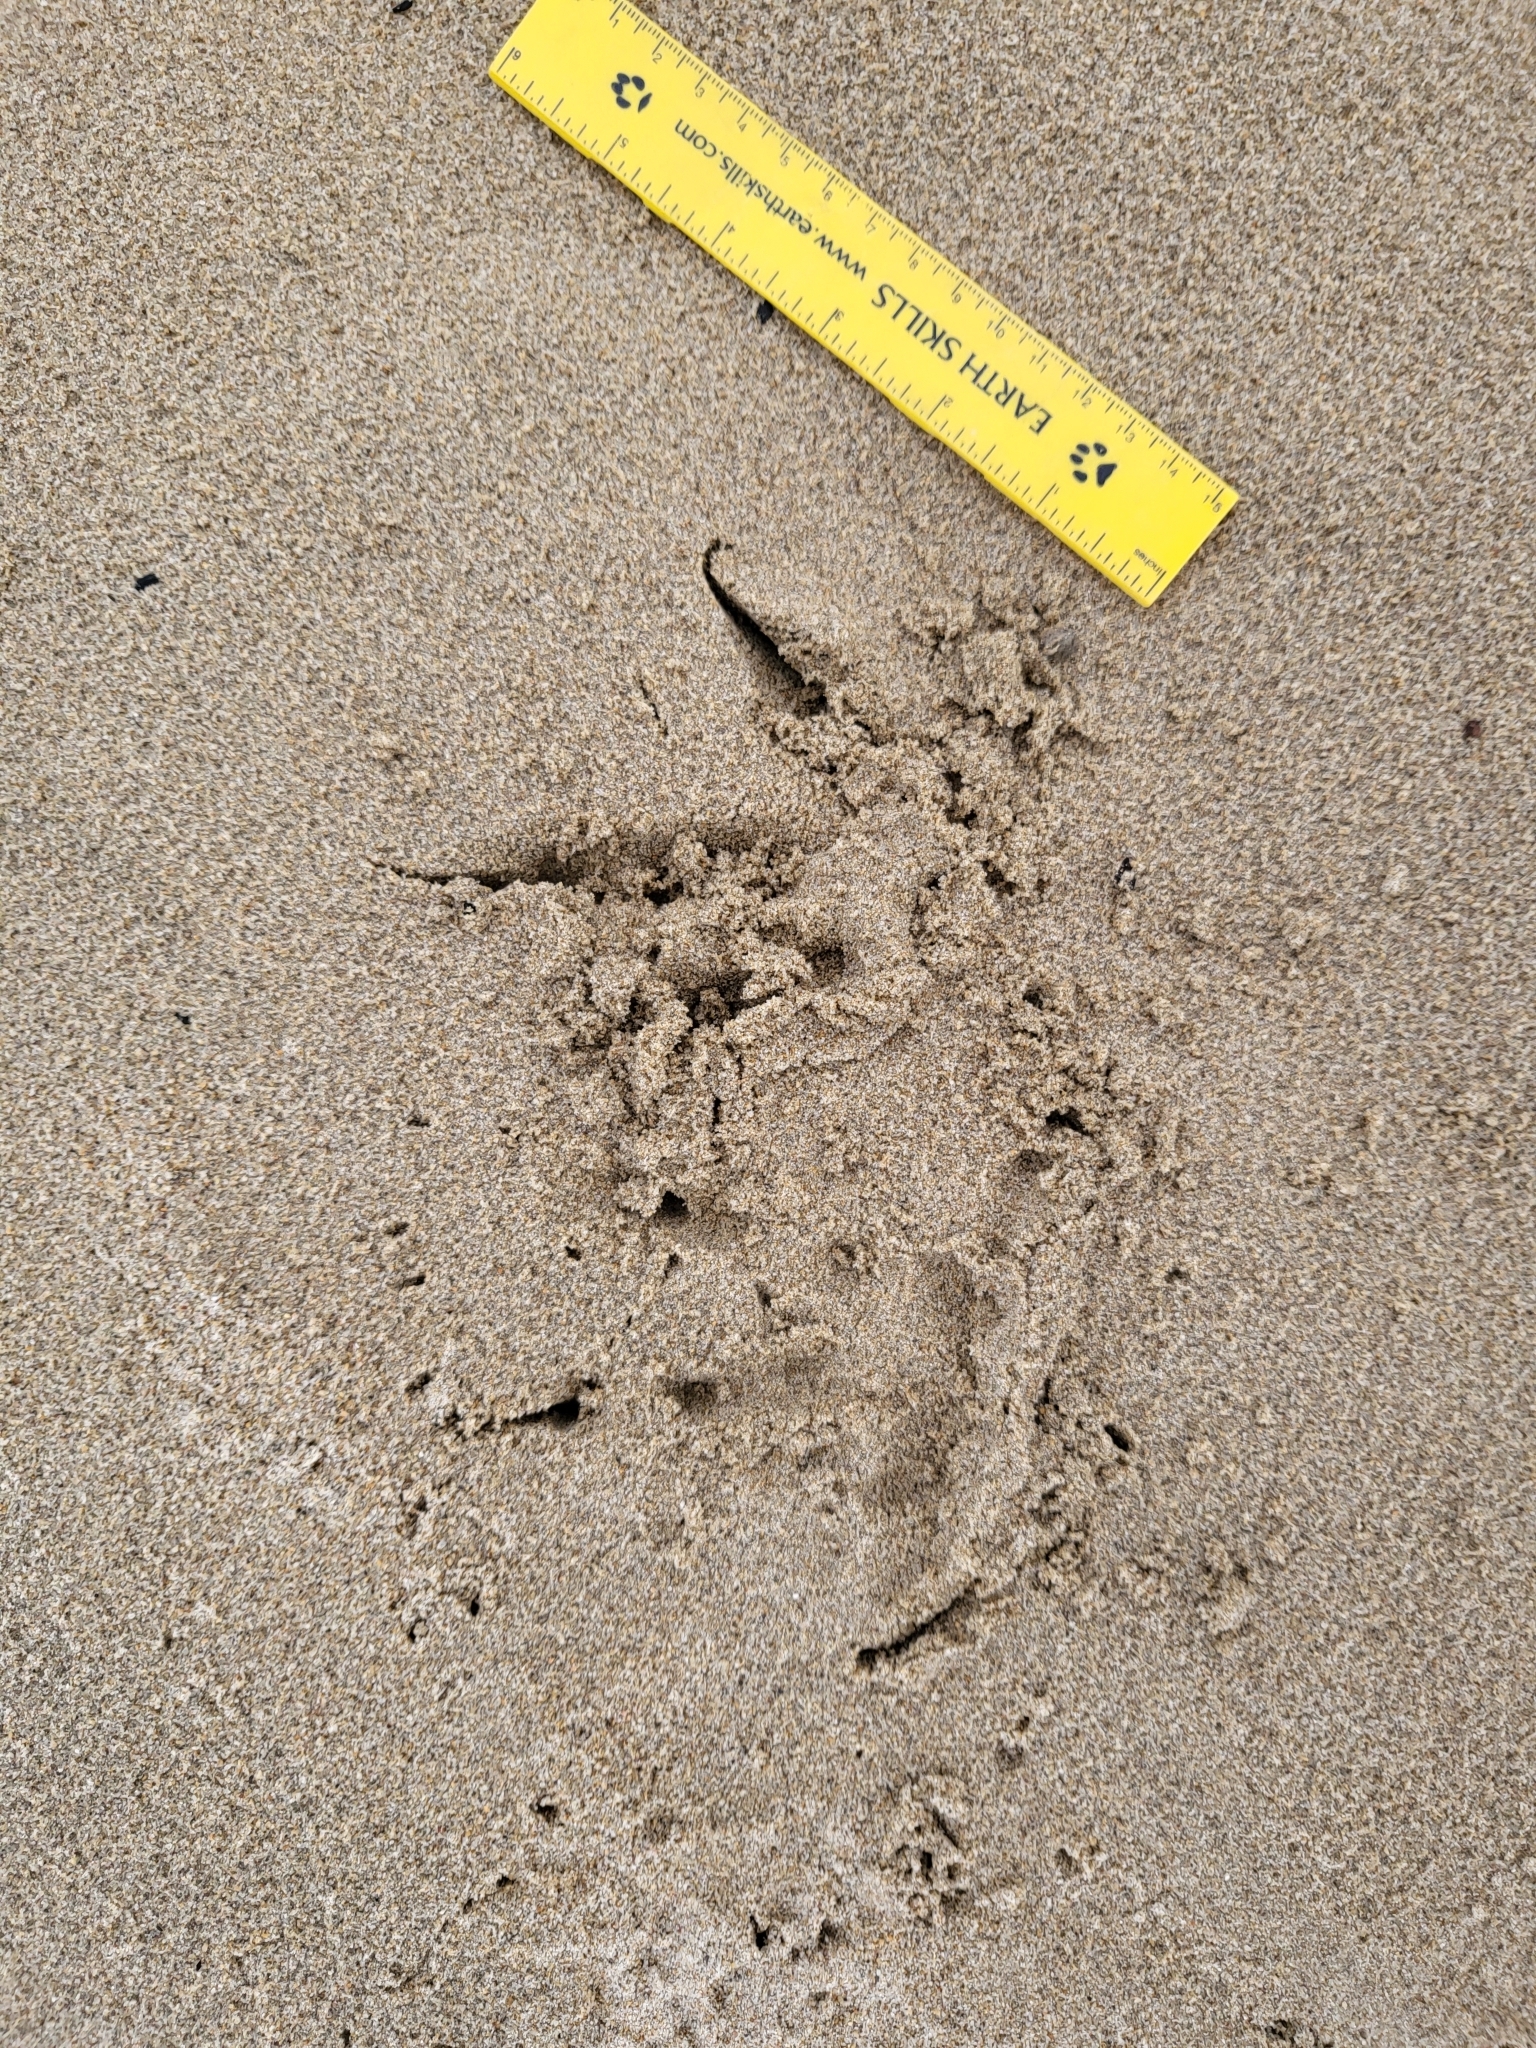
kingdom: Animalia
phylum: Chordata
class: Aves
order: Falconiformes
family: Falconidae
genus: Falco
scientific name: Falco peregrinus
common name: Peregrine falcon
